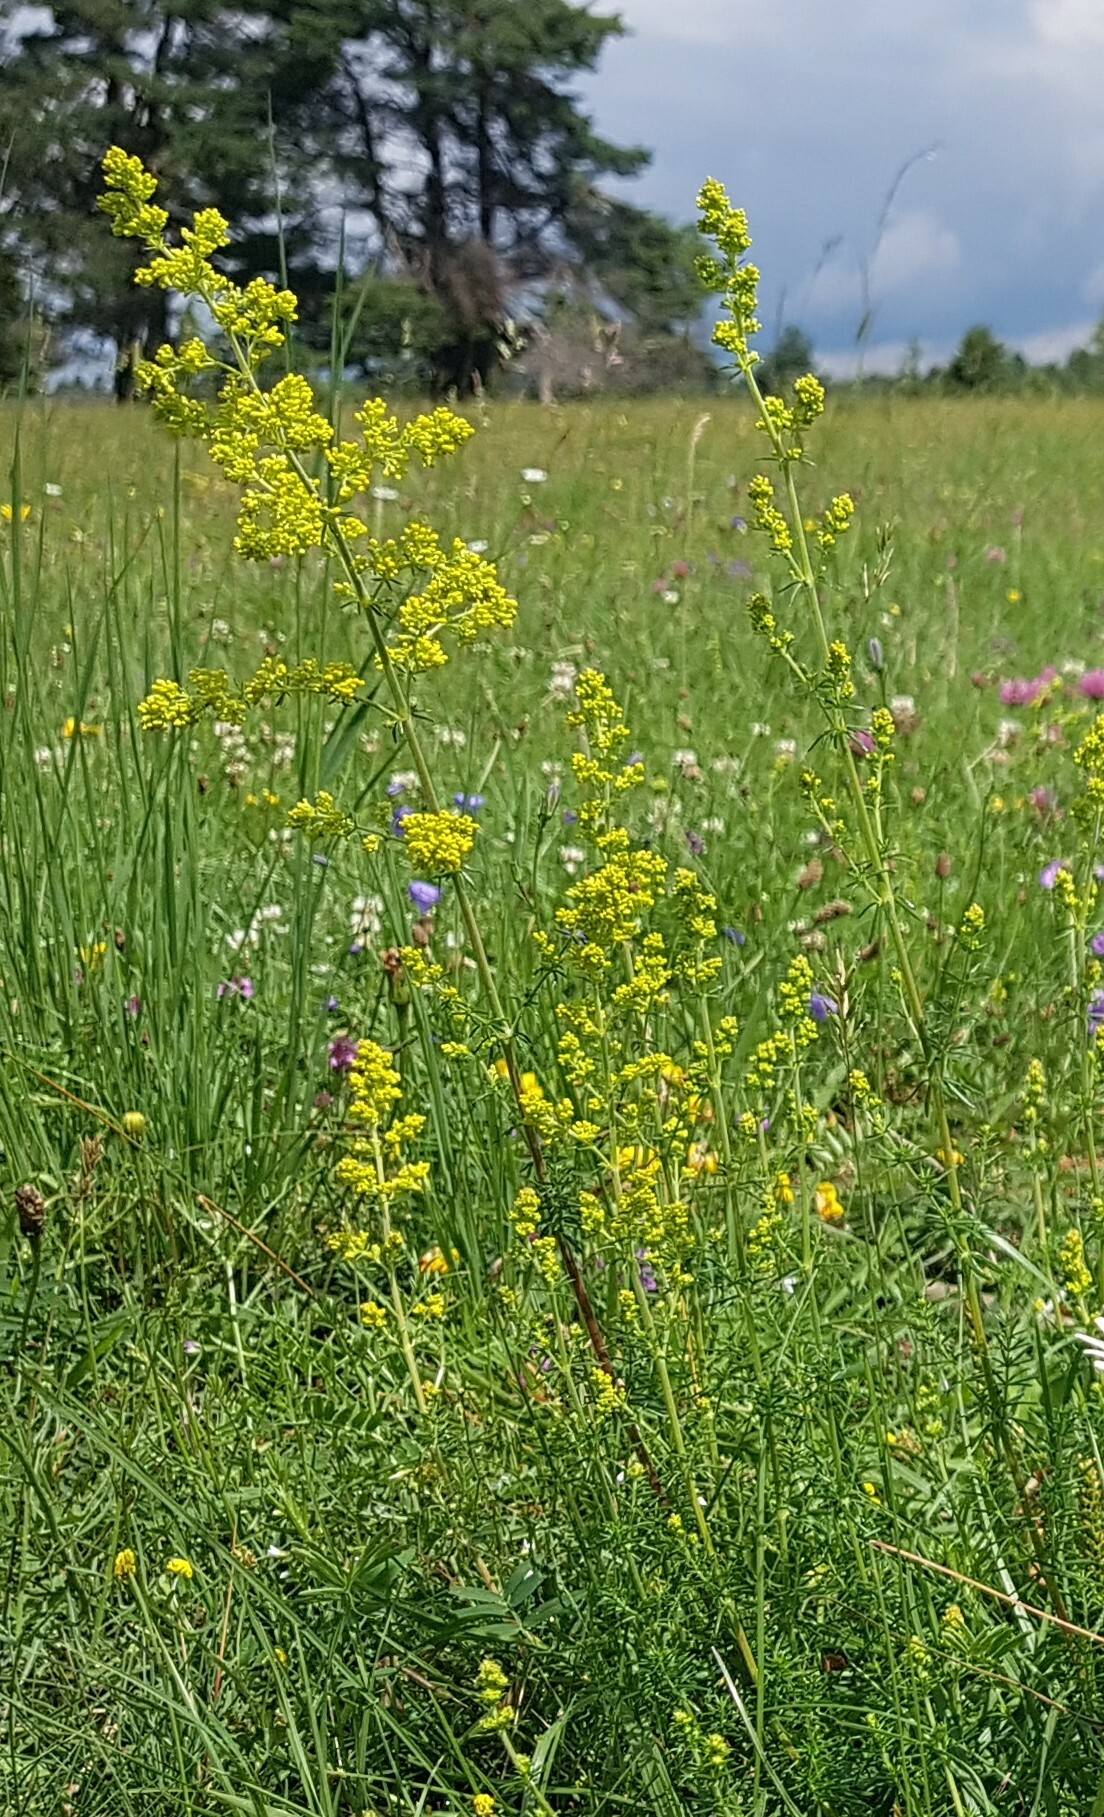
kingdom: Plantae
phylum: Tracheophyta
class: Magnoliopsida
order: Gentianales
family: Rubiaceae
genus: Galium
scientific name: Galium verum
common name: Lady's bedstraw
